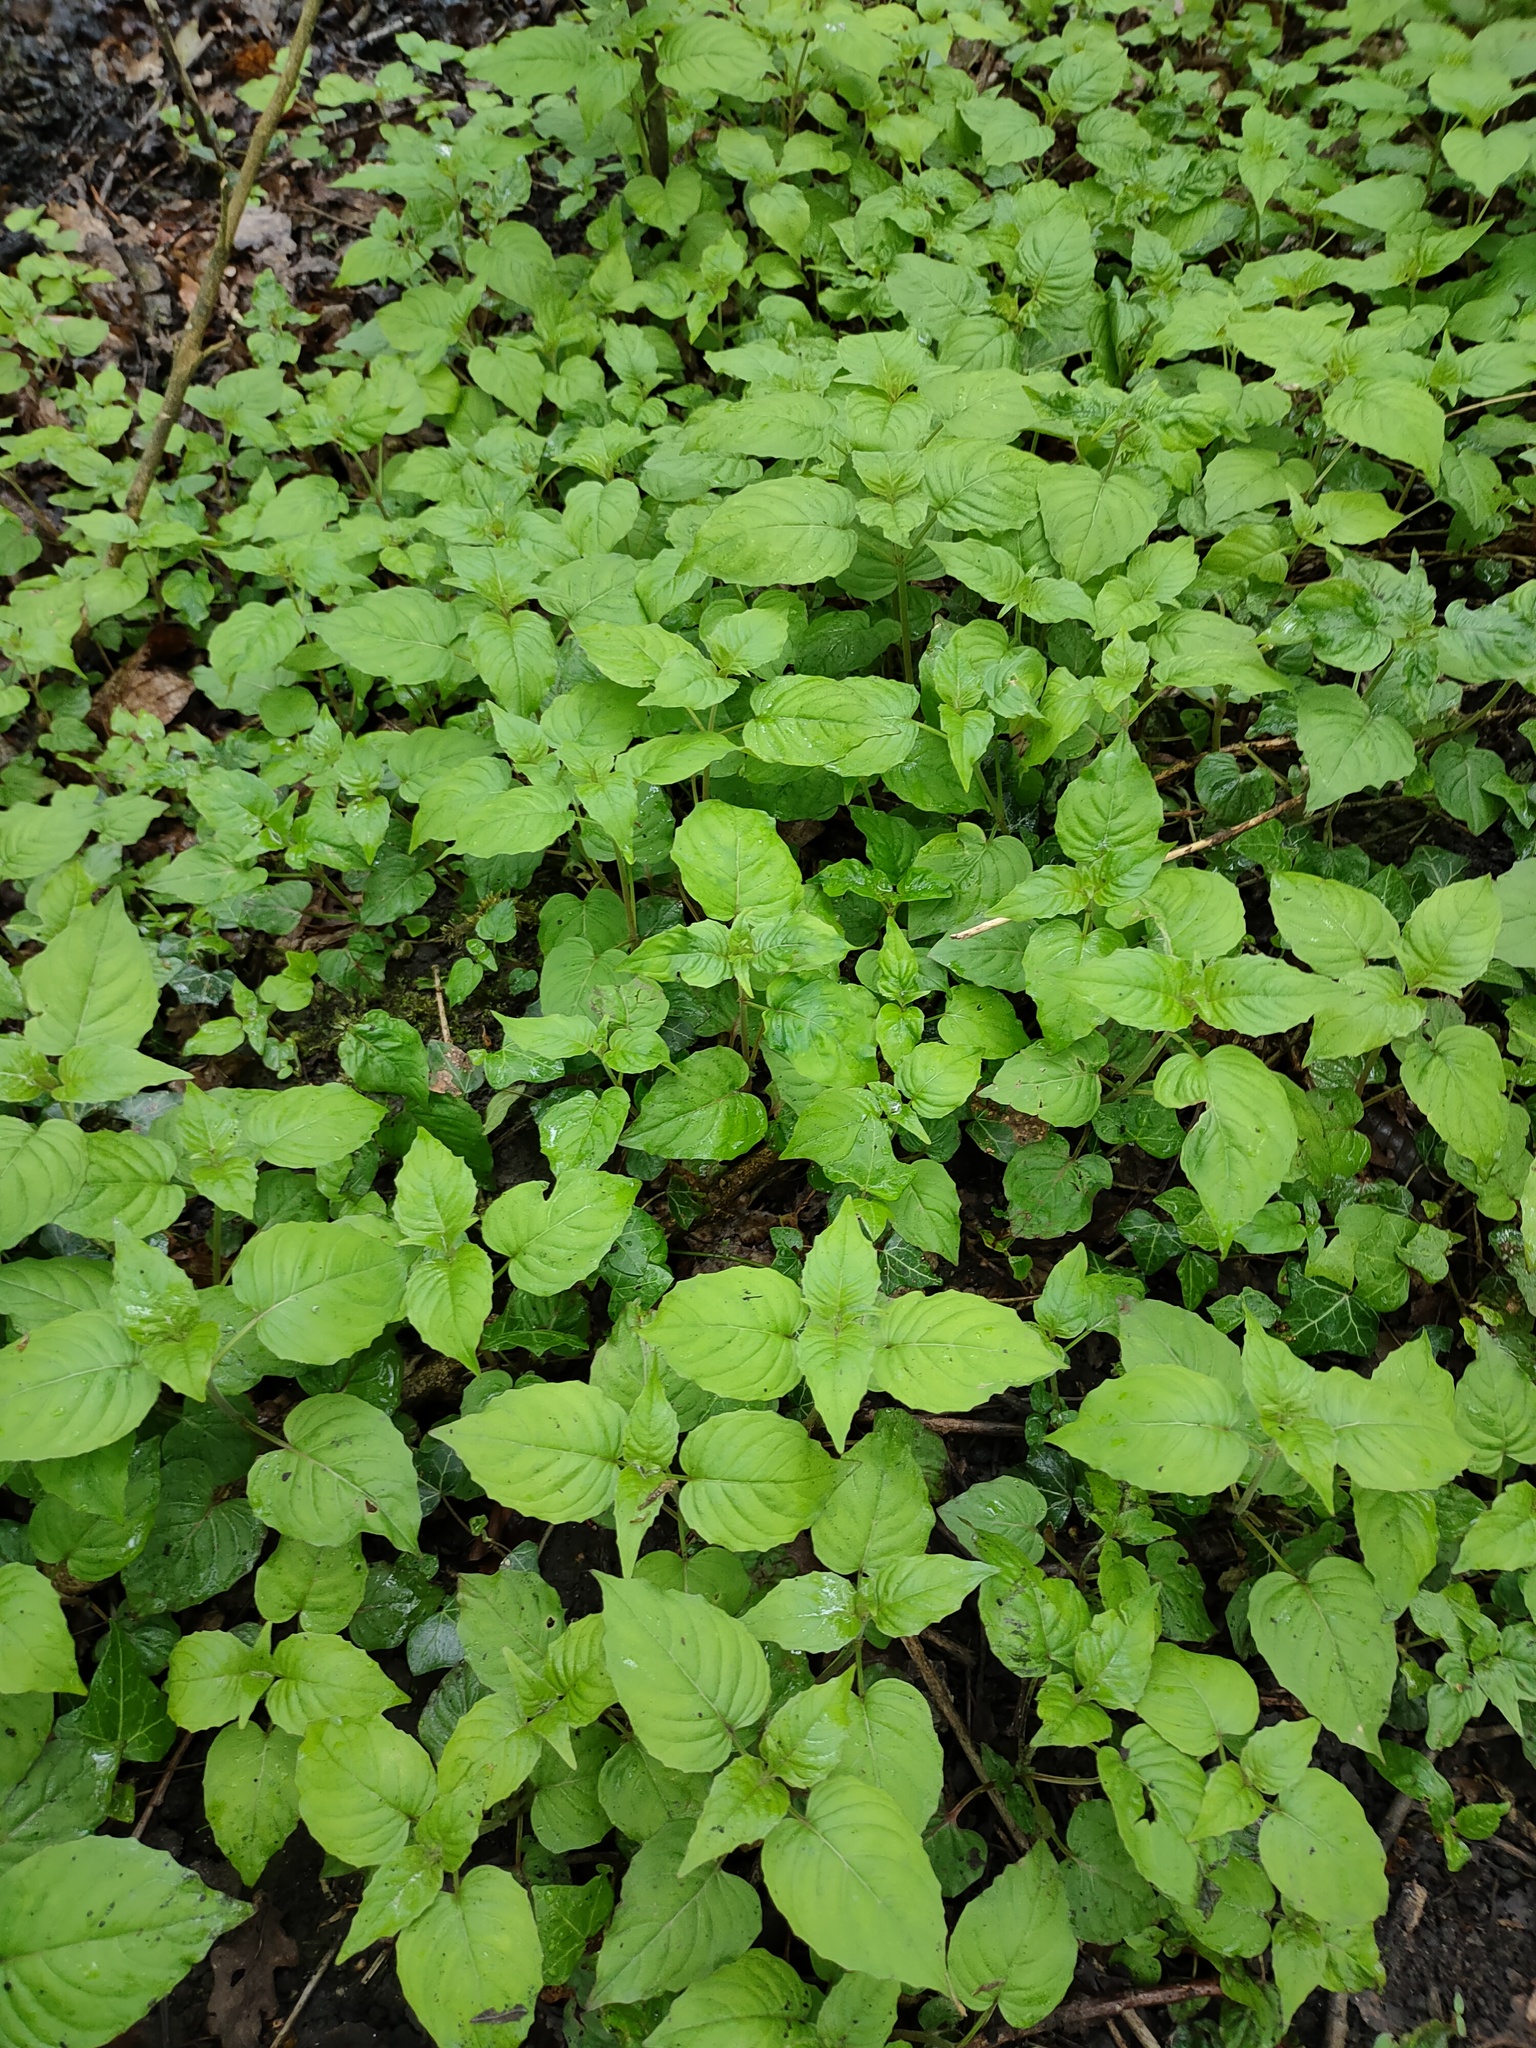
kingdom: Plantae
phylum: Tracheophyta
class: Magnoliopsida
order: Myrtales
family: Onagraceae
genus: Circaea
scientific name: Circaea lutetiana
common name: Enchanter's-nightshade
